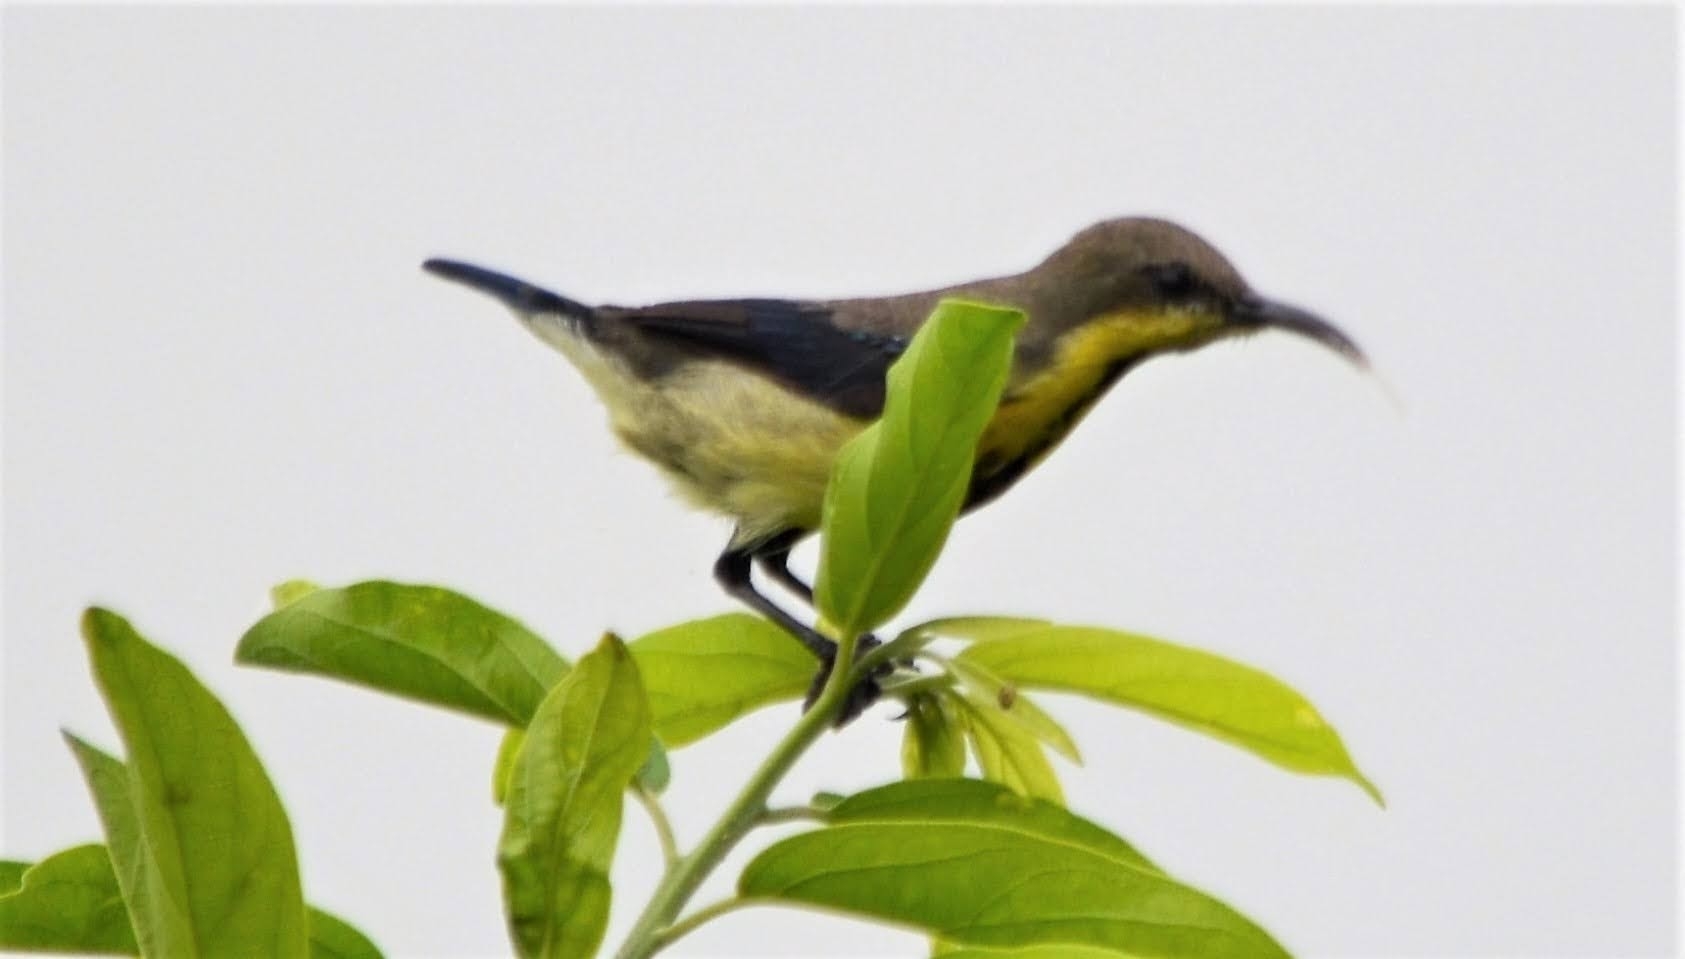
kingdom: Animalia
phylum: Chordata
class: Aves
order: Passeriformes
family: Nectariniidae
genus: Cinnyris
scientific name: Cinnyris asiaticus
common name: Purple sunbird
